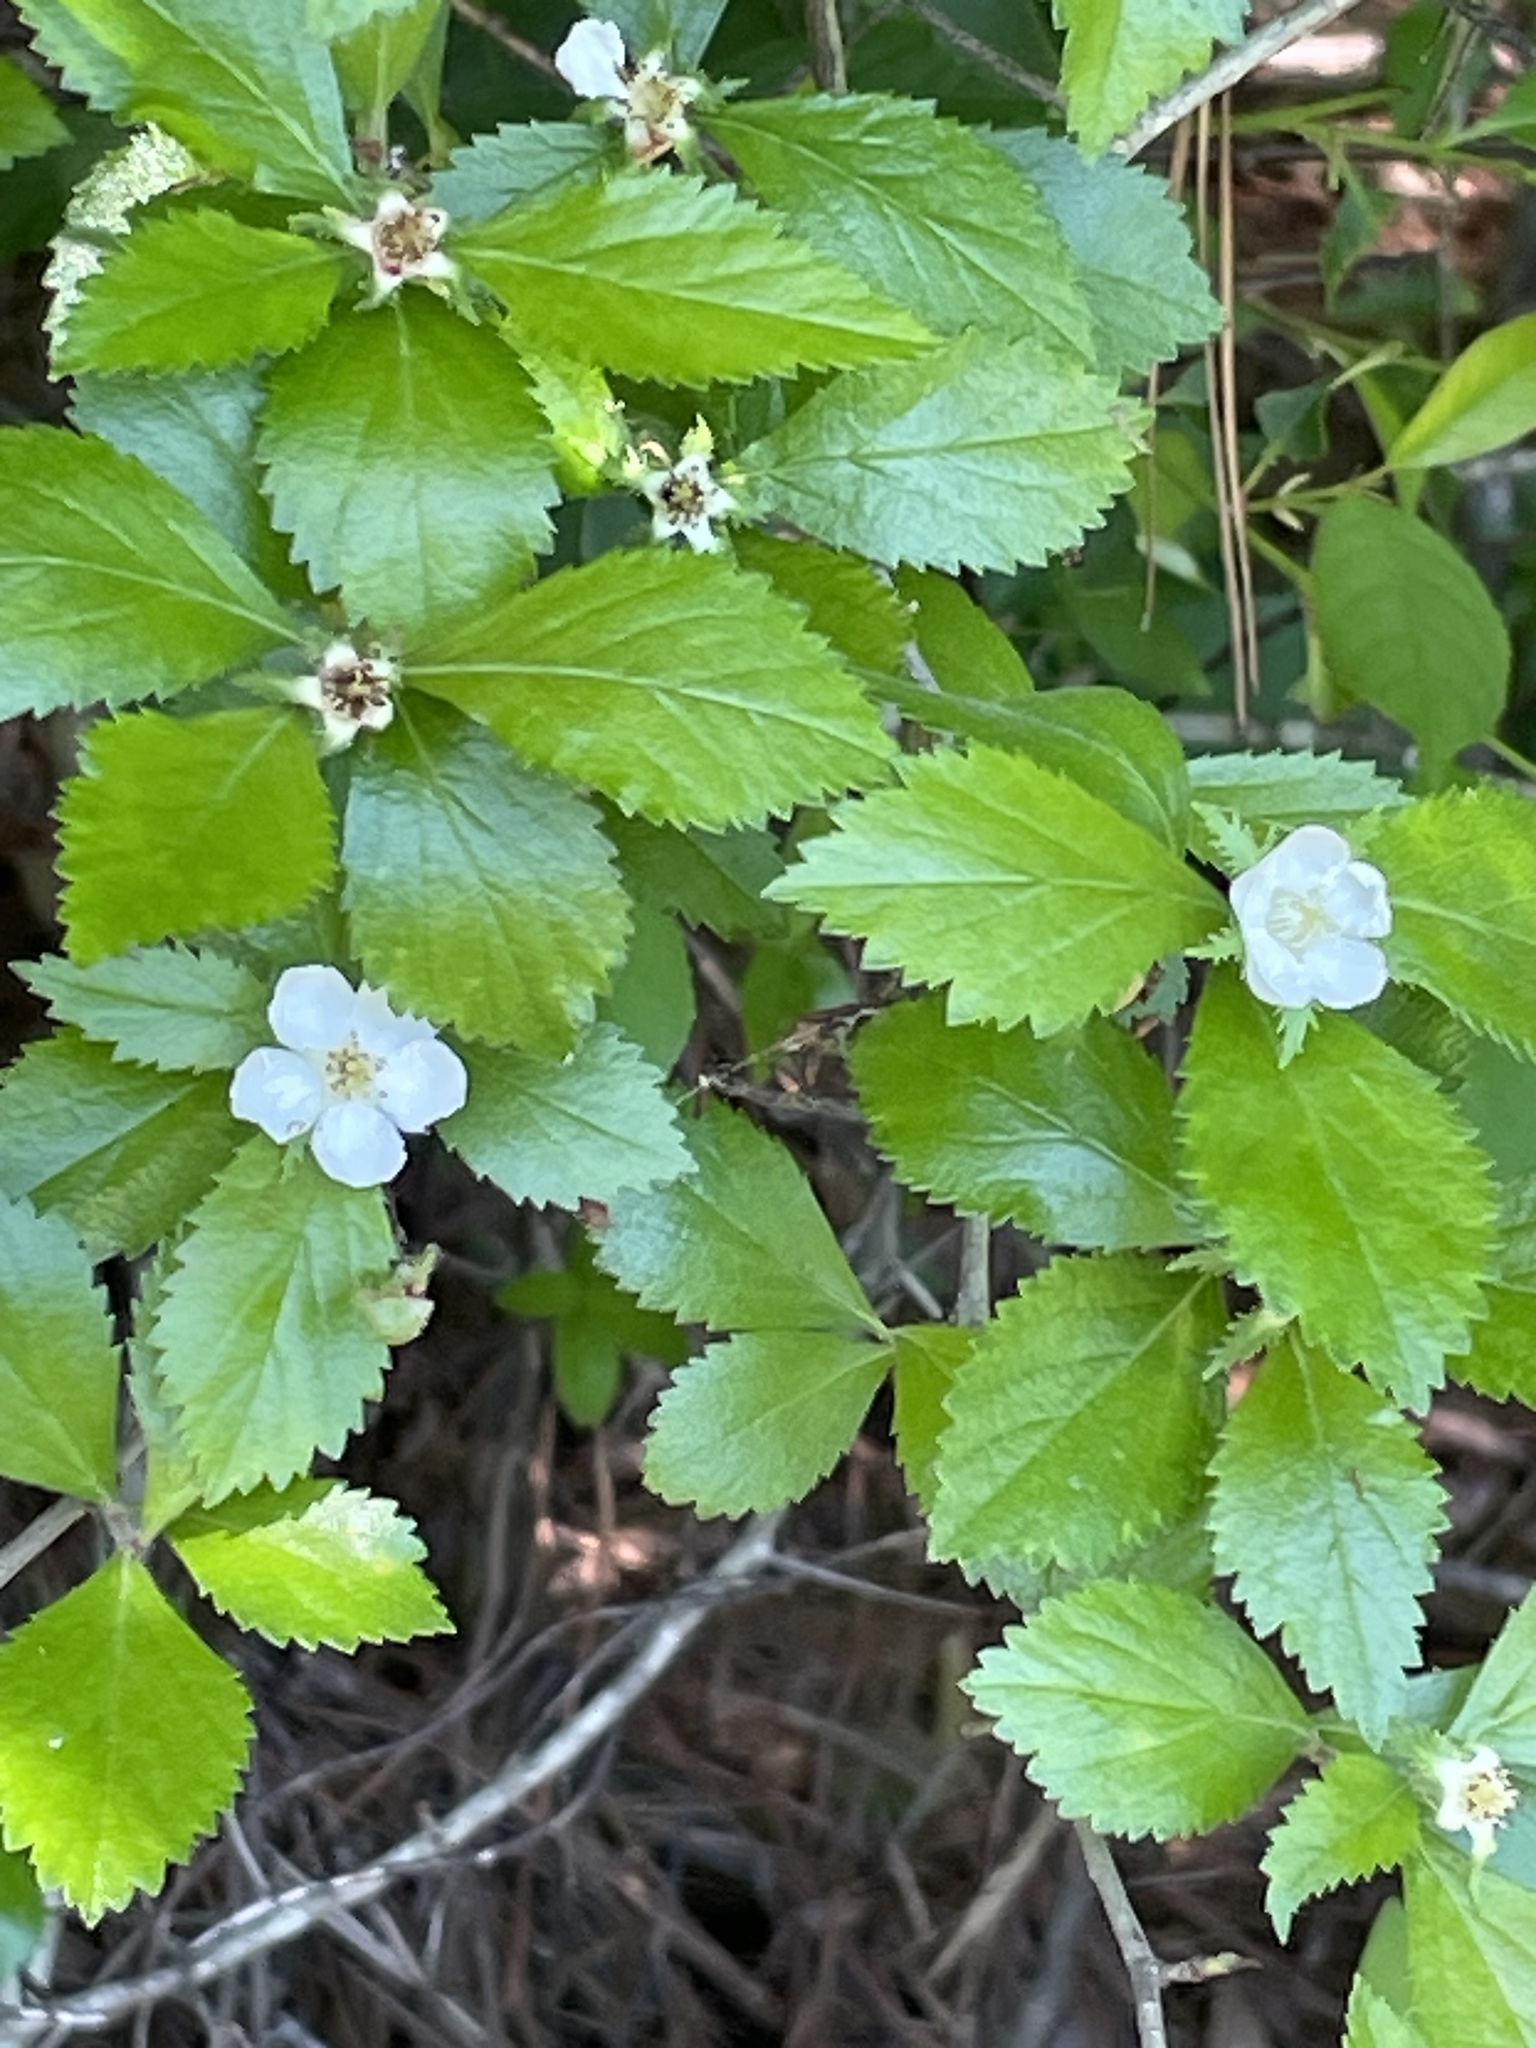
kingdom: Plantae
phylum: Tracheophyta
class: Magnoliopsida
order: Rosales
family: Rosaceae
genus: Crataegus
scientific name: Crataegus uniflora
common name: One-flower hawthorn
